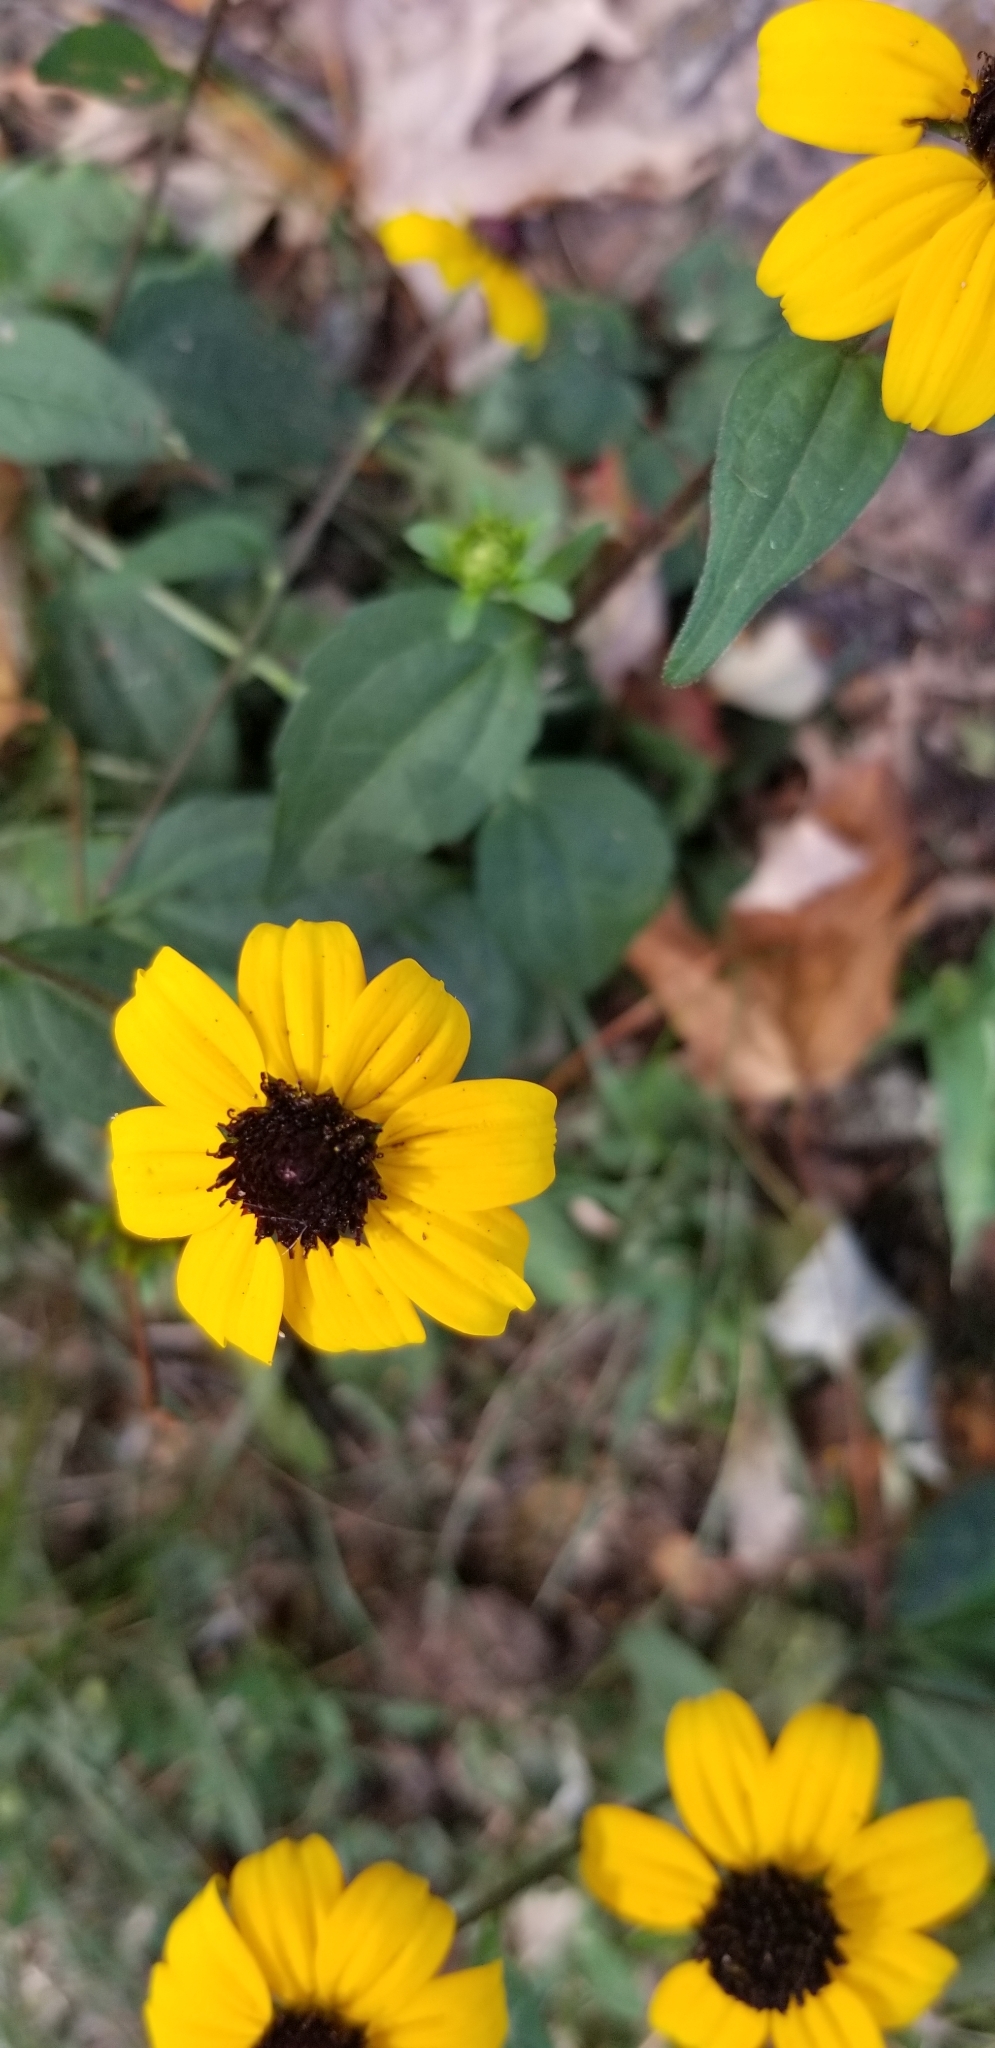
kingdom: Plantae
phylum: Tracheophyta
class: Magnoliopsida
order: Asterales
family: Asteraceae
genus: Rudbeckia
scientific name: Rudbeckia triloba
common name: Thin-leaved coneflower
